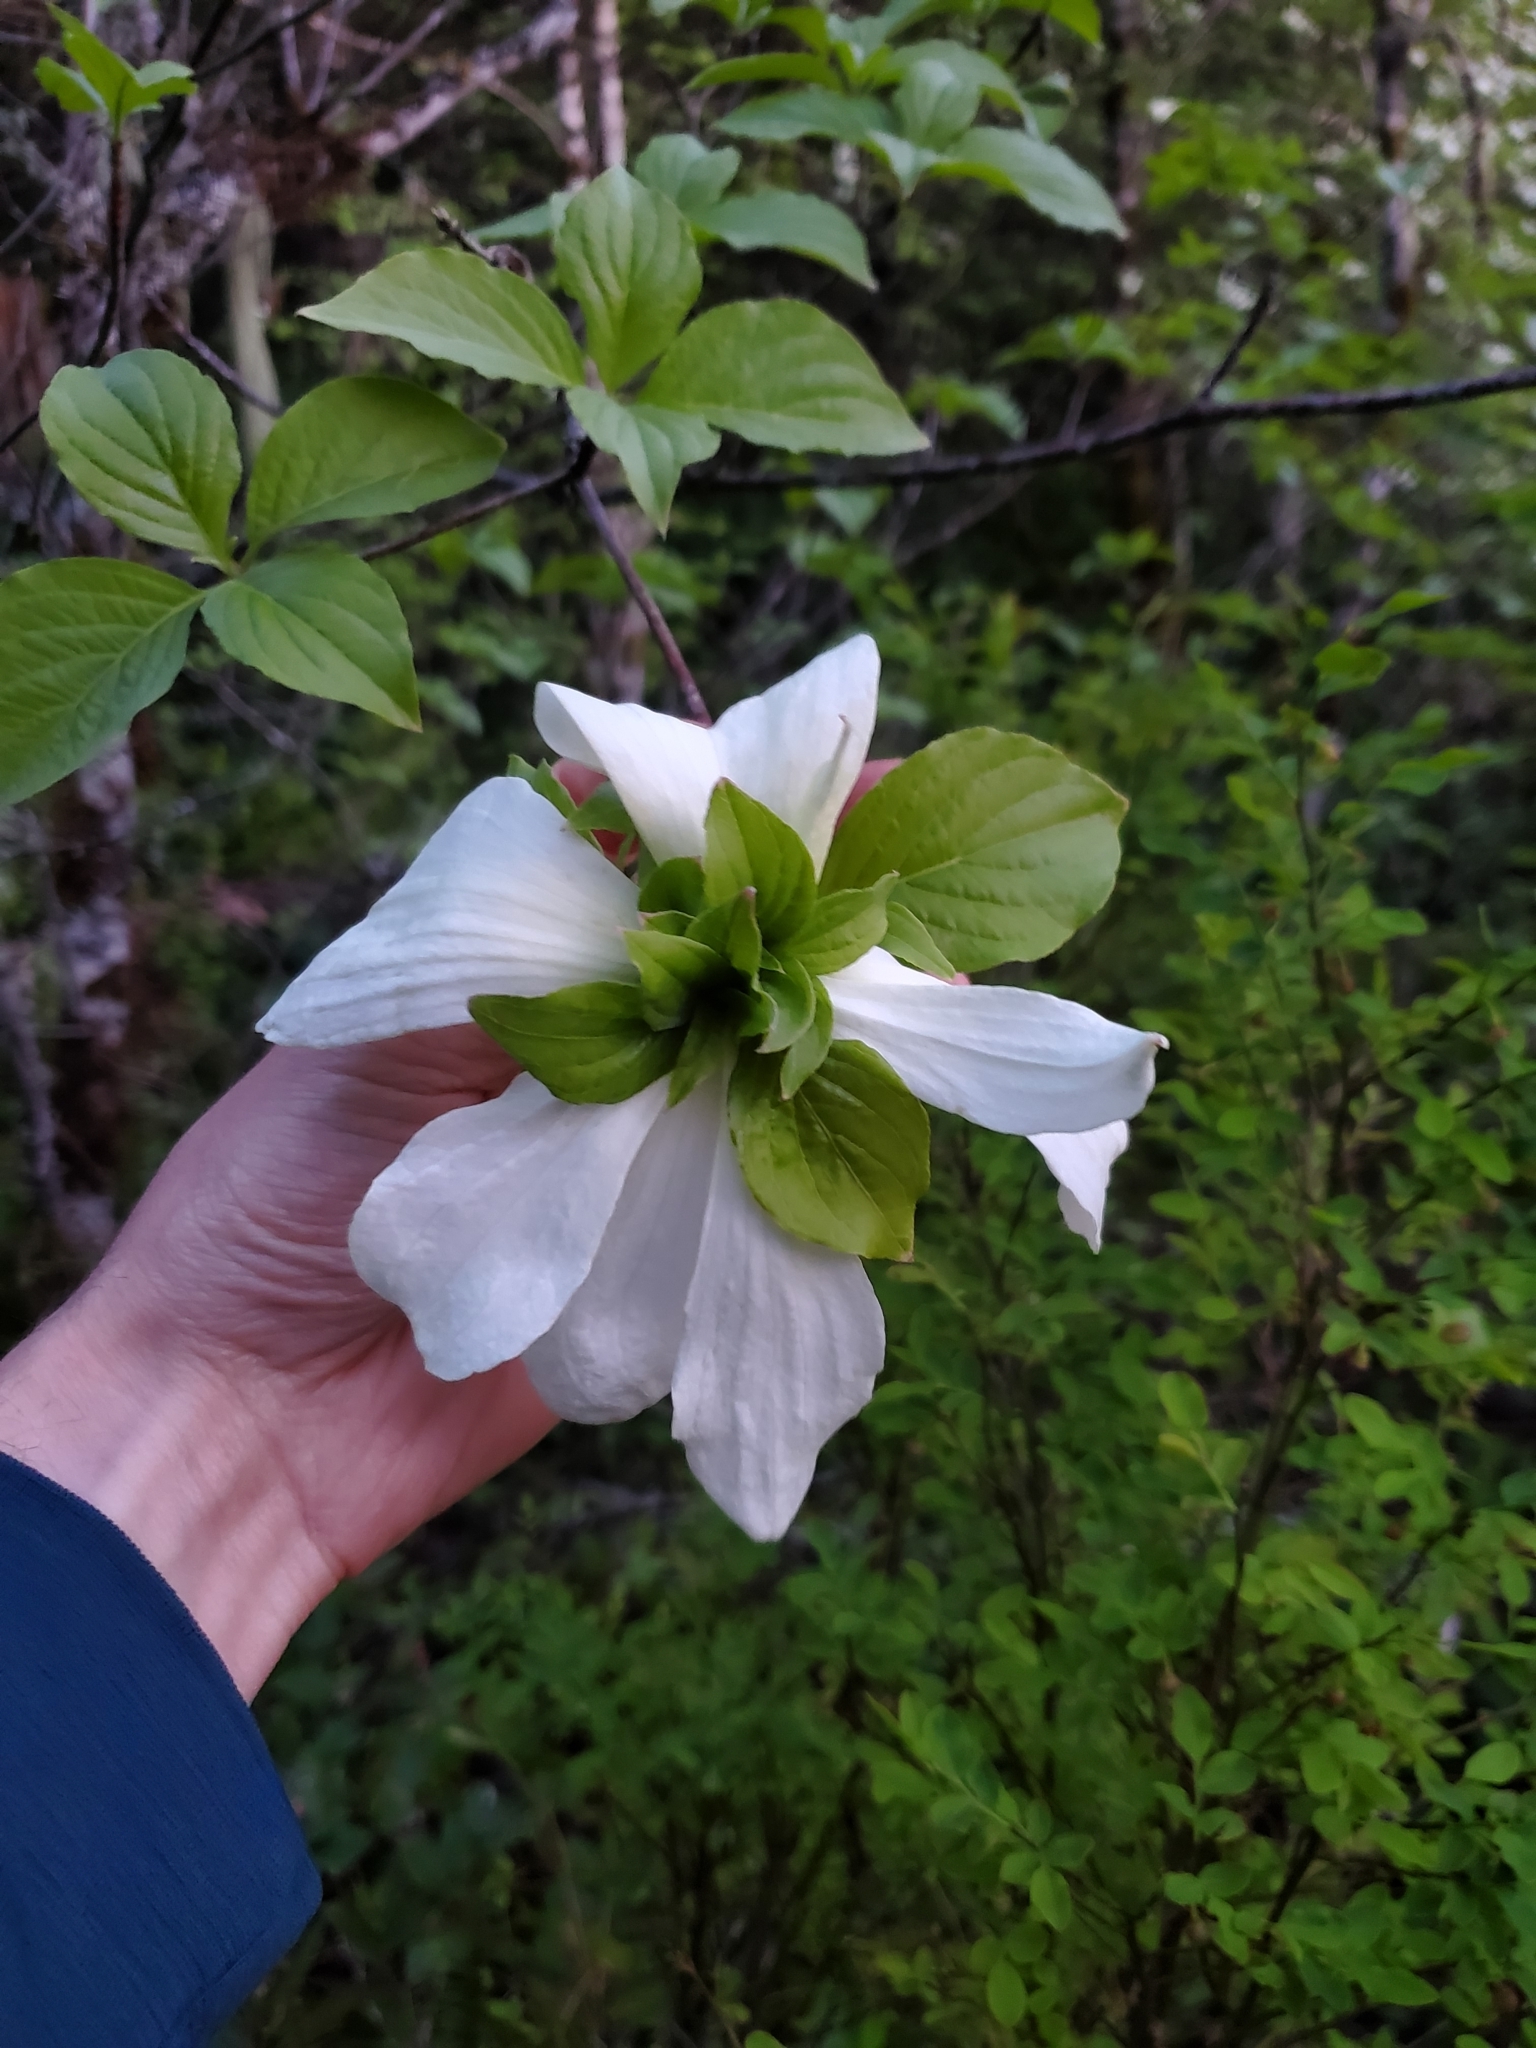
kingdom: Plantae
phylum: Tracheophyta
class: Magnoliopsida
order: Cornales
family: Cornaceae
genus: Cornus
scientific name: Cornus nuttallii
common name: Pacific dogwood
